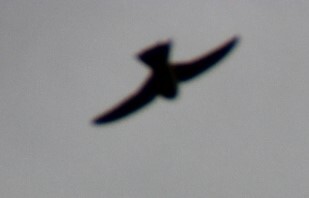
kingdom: Animalia
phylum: Chordata
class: Aves
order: Passeriformes
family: Hirundinidae
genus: Delichon
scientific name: Delichon urbicum
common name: Common house martin
